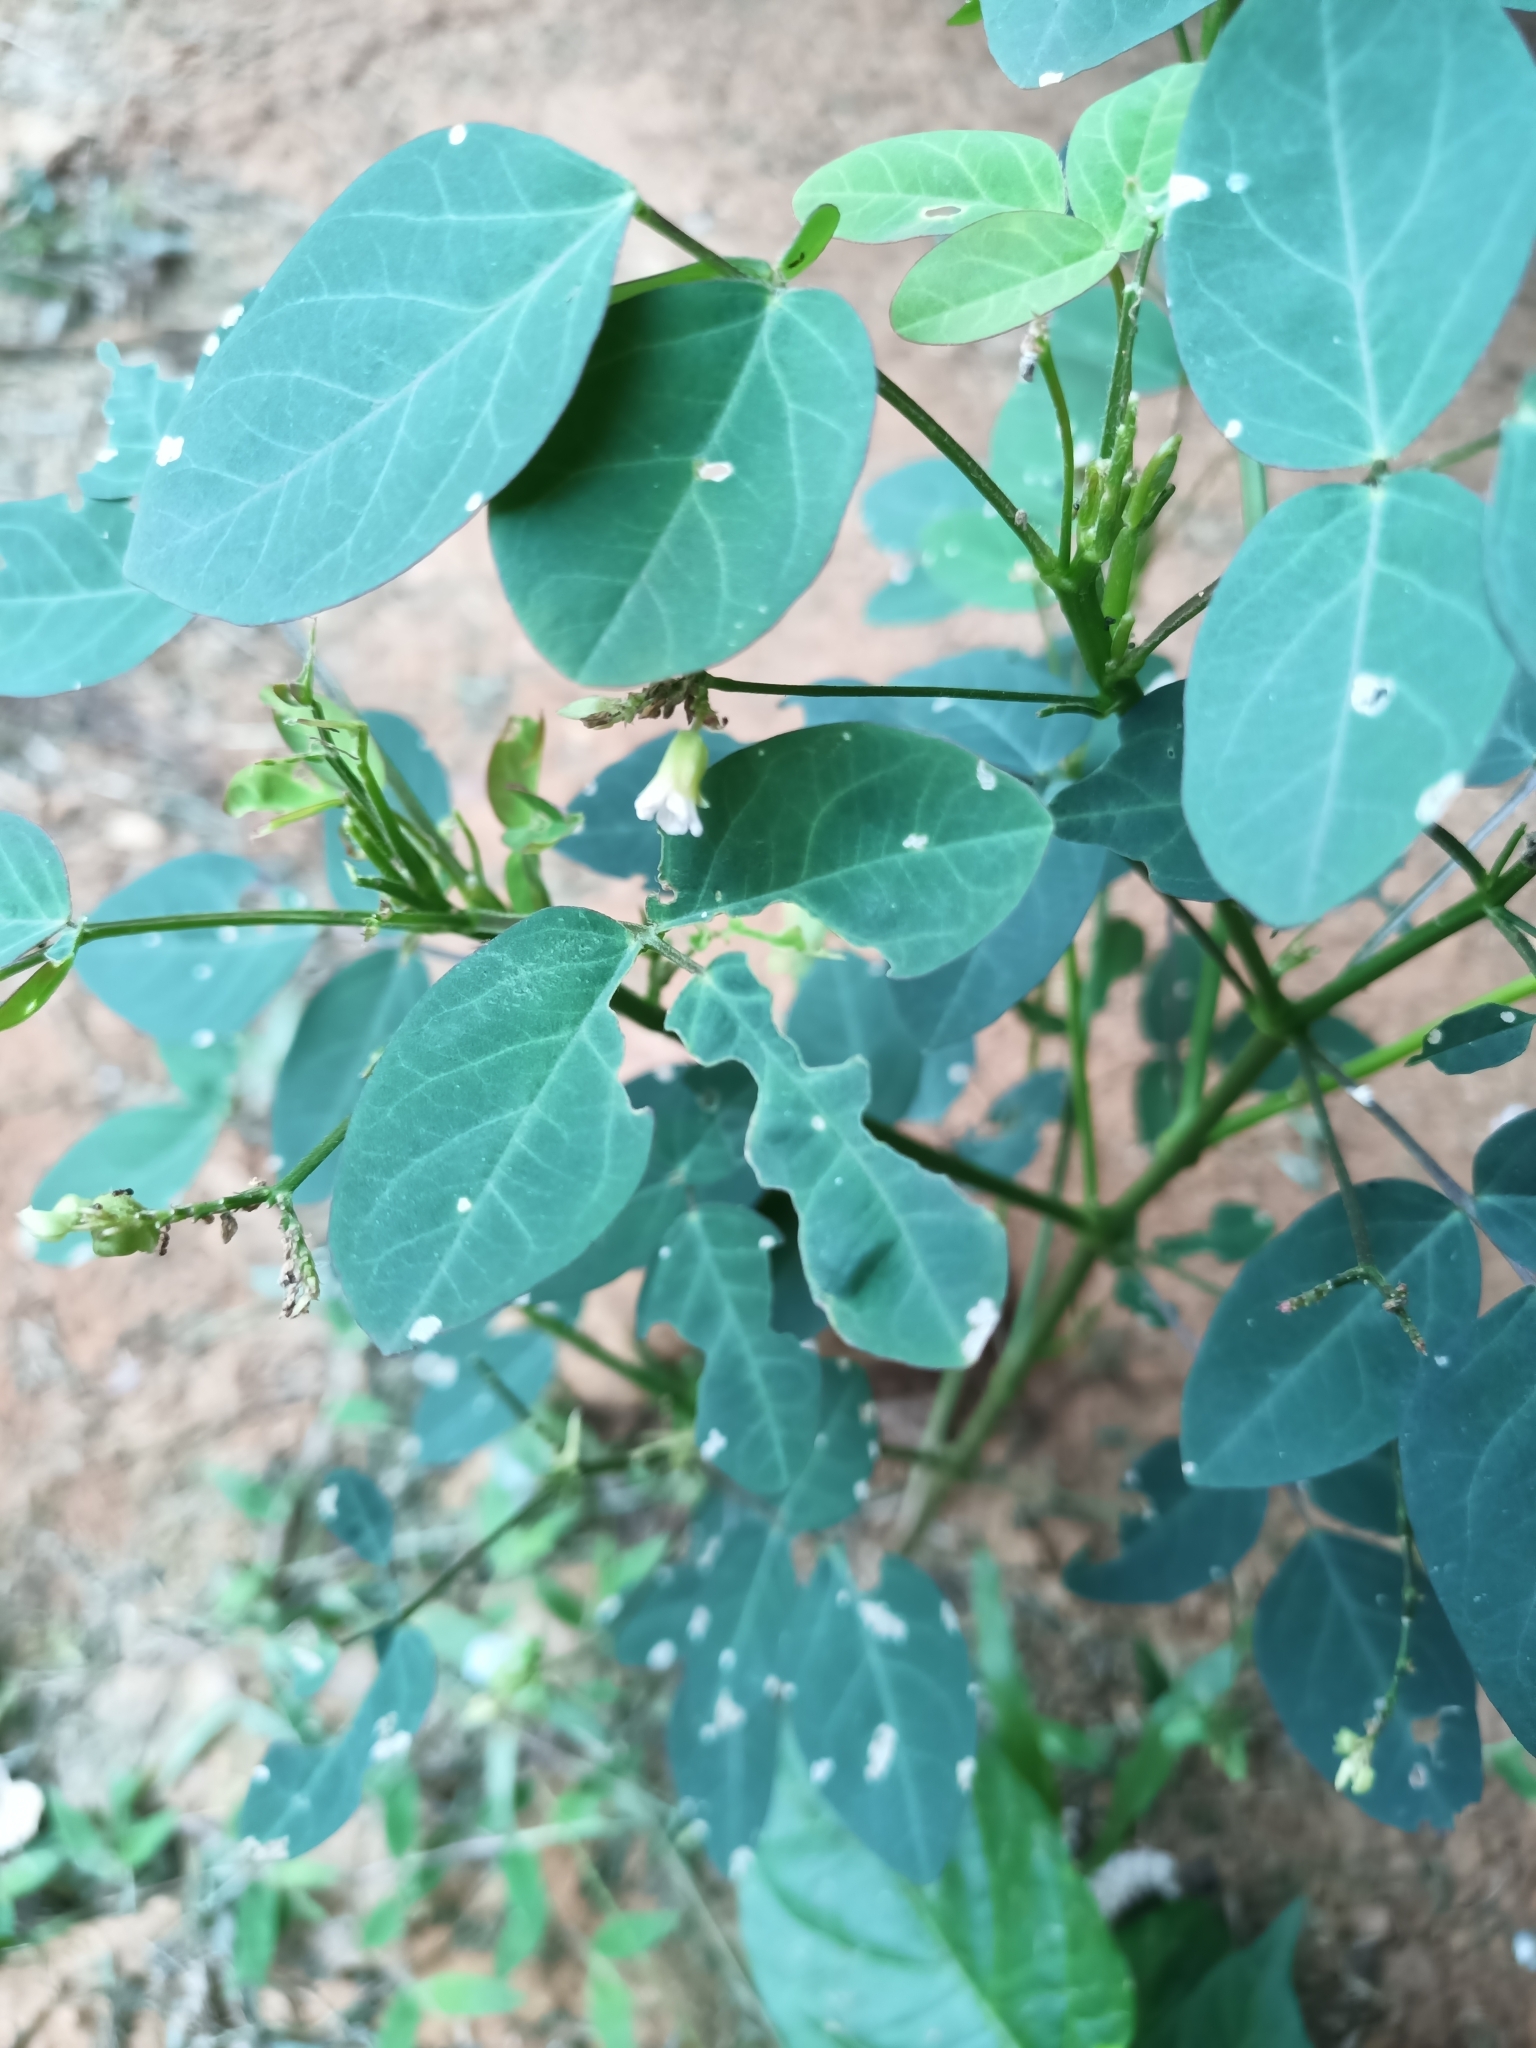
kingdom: Plantae
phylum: Tracheophyta
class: Magnoliopsida
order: Oxalidales
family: Oxalidaceae
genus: Oxalis
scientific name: Oxalis barrelieri
